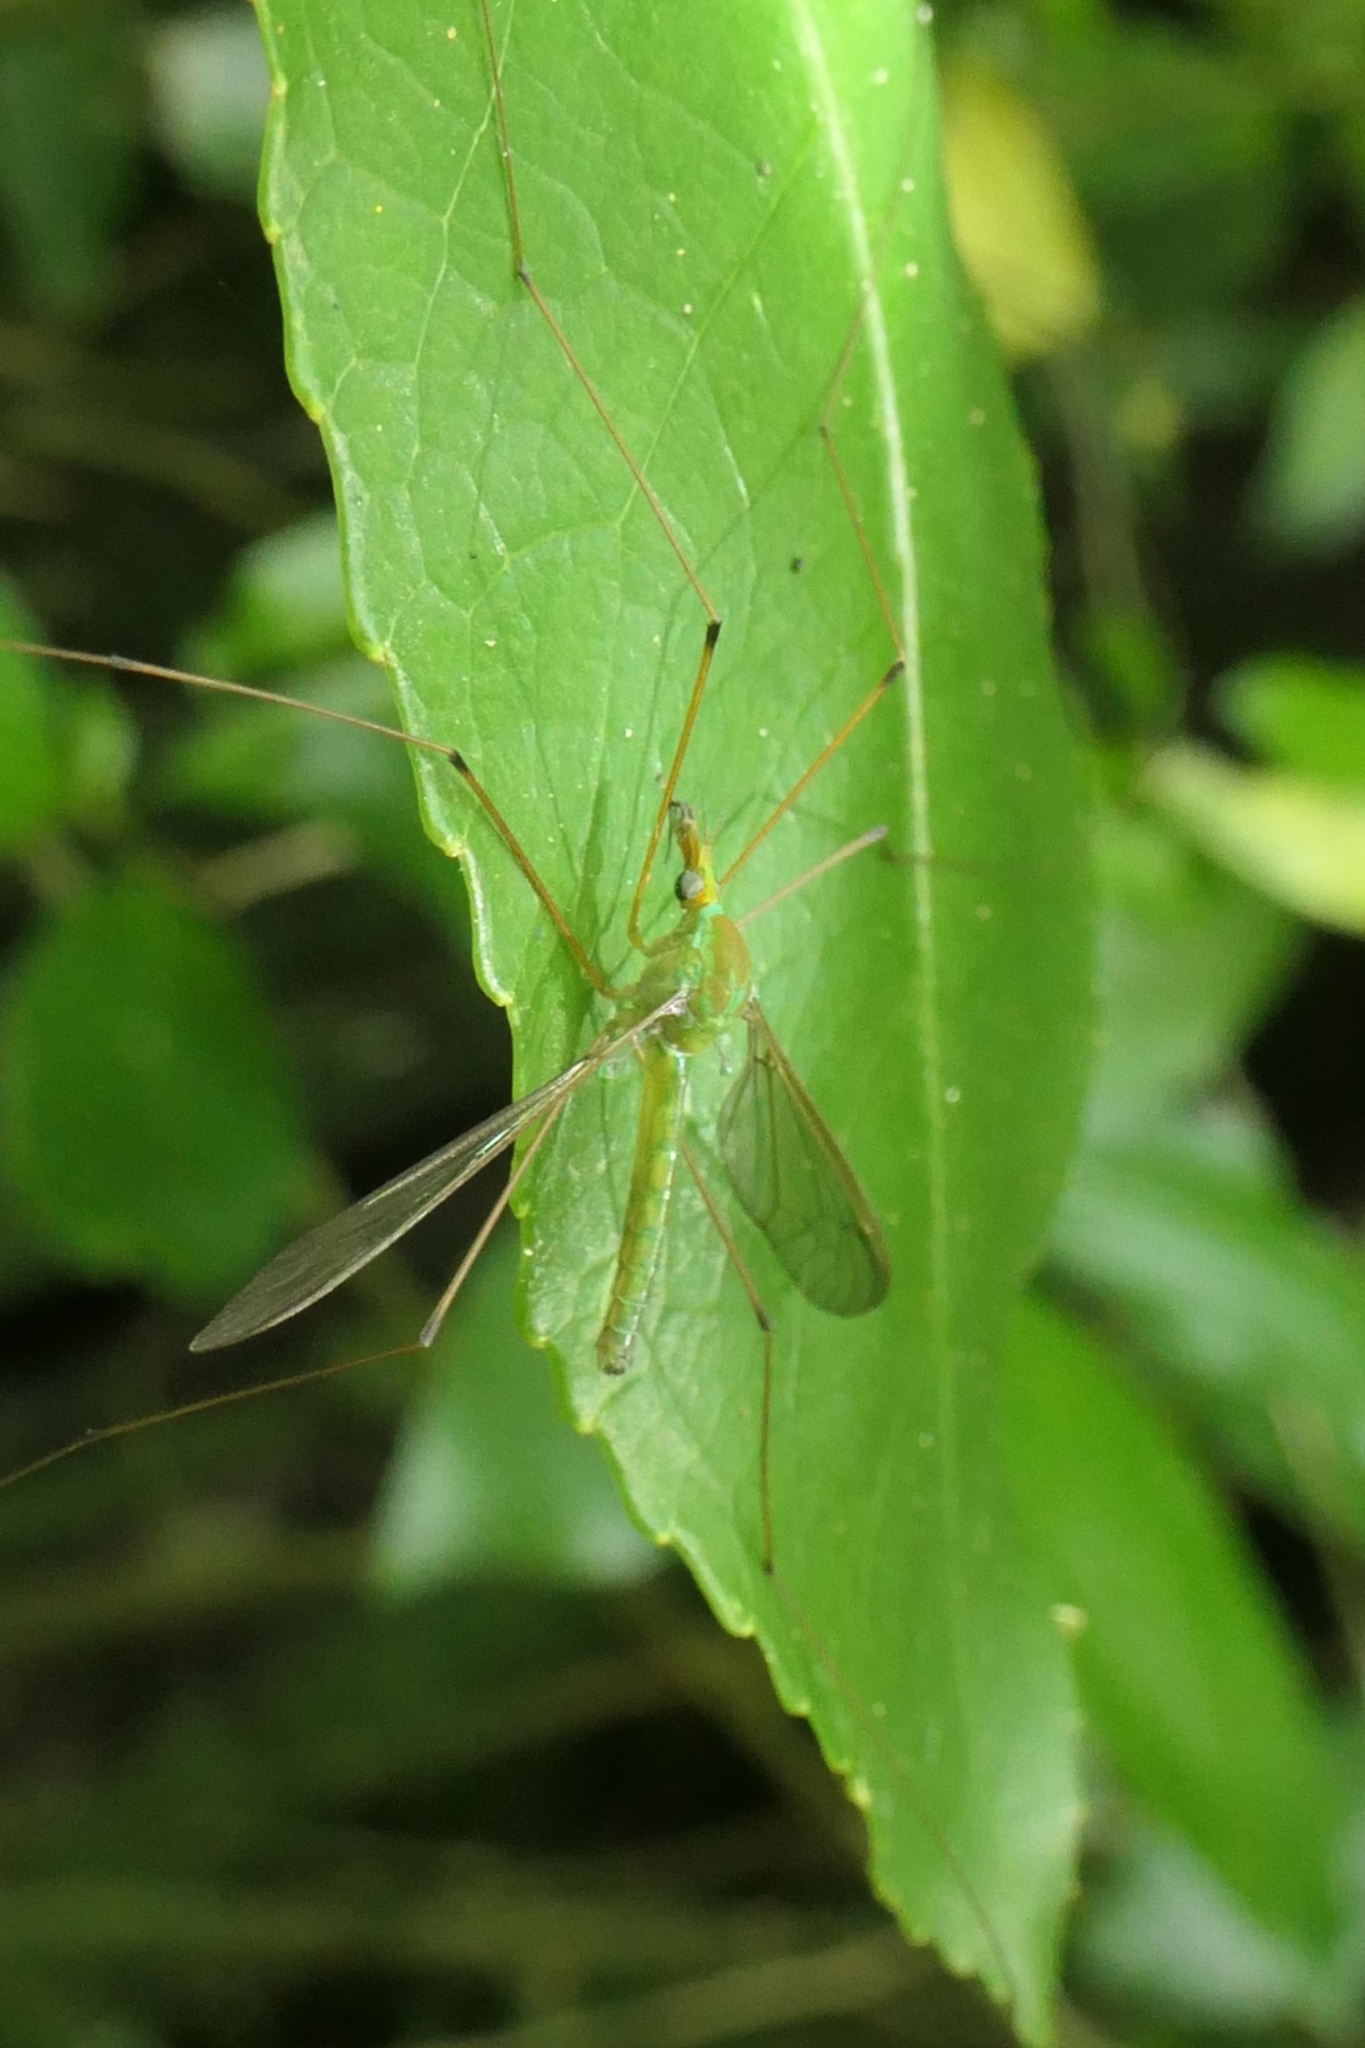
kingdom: Animalia
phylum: Arthropoda
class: Insecta
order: Diptera
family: Tipulidae
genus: Leptotarsus
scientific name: Leptotarsus virescens
